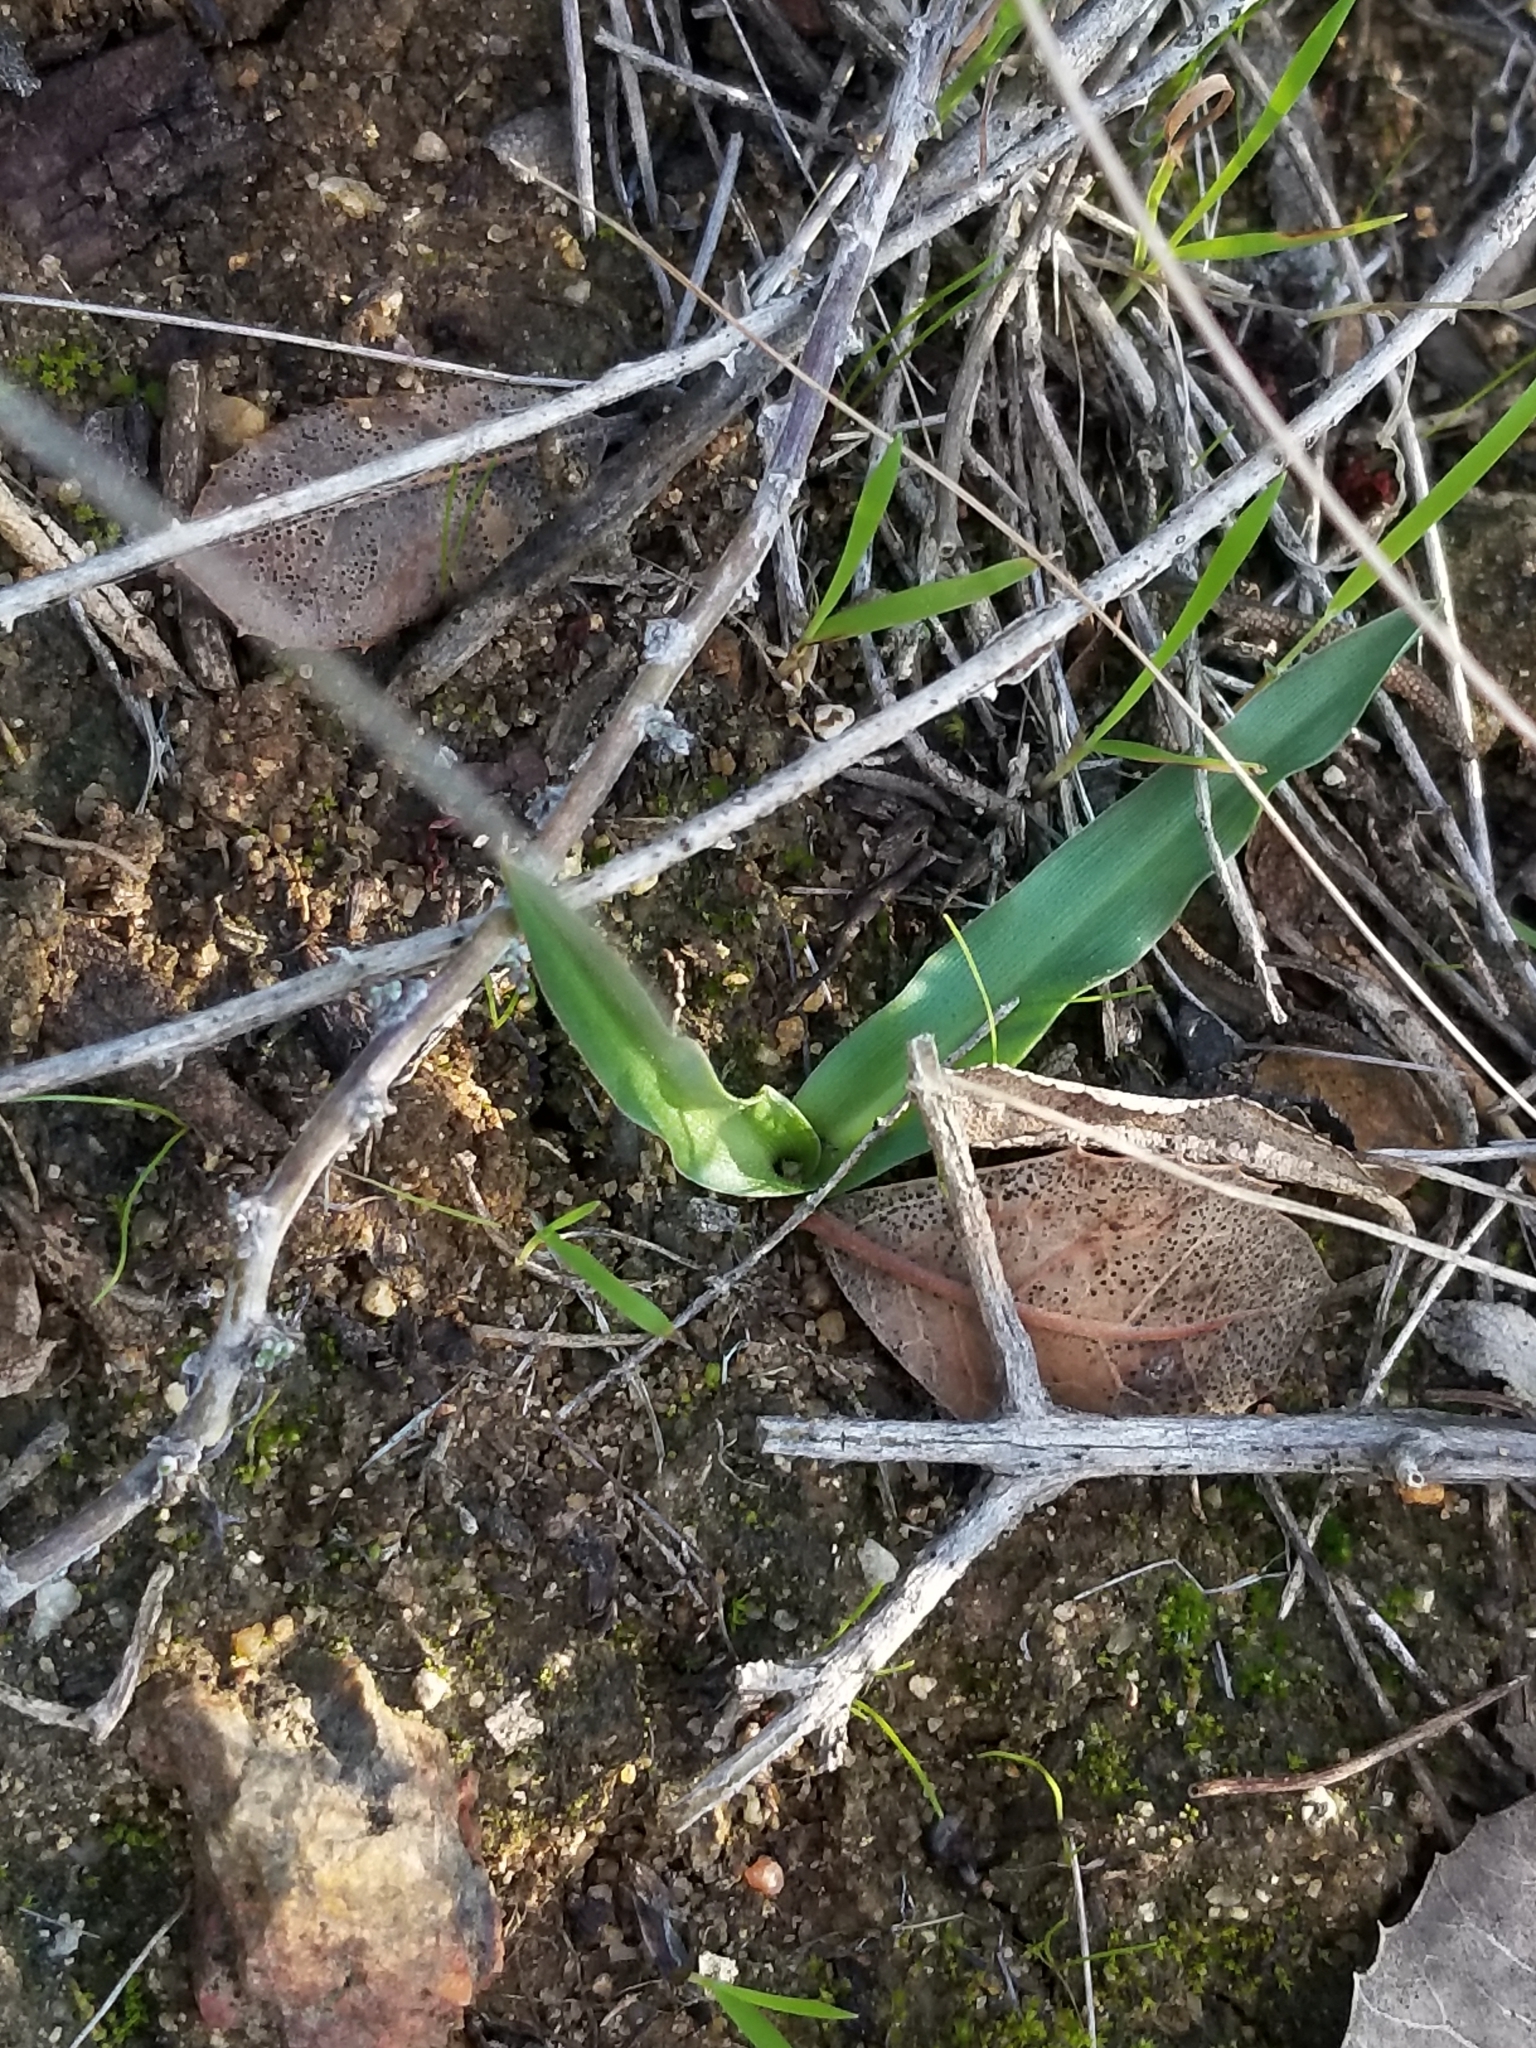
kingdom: Plantae
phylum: Tracheophyta
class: Liliopsida
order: Asparagales
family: Asparagaceae
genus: Hooveria
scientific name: Hooveria parviflora
